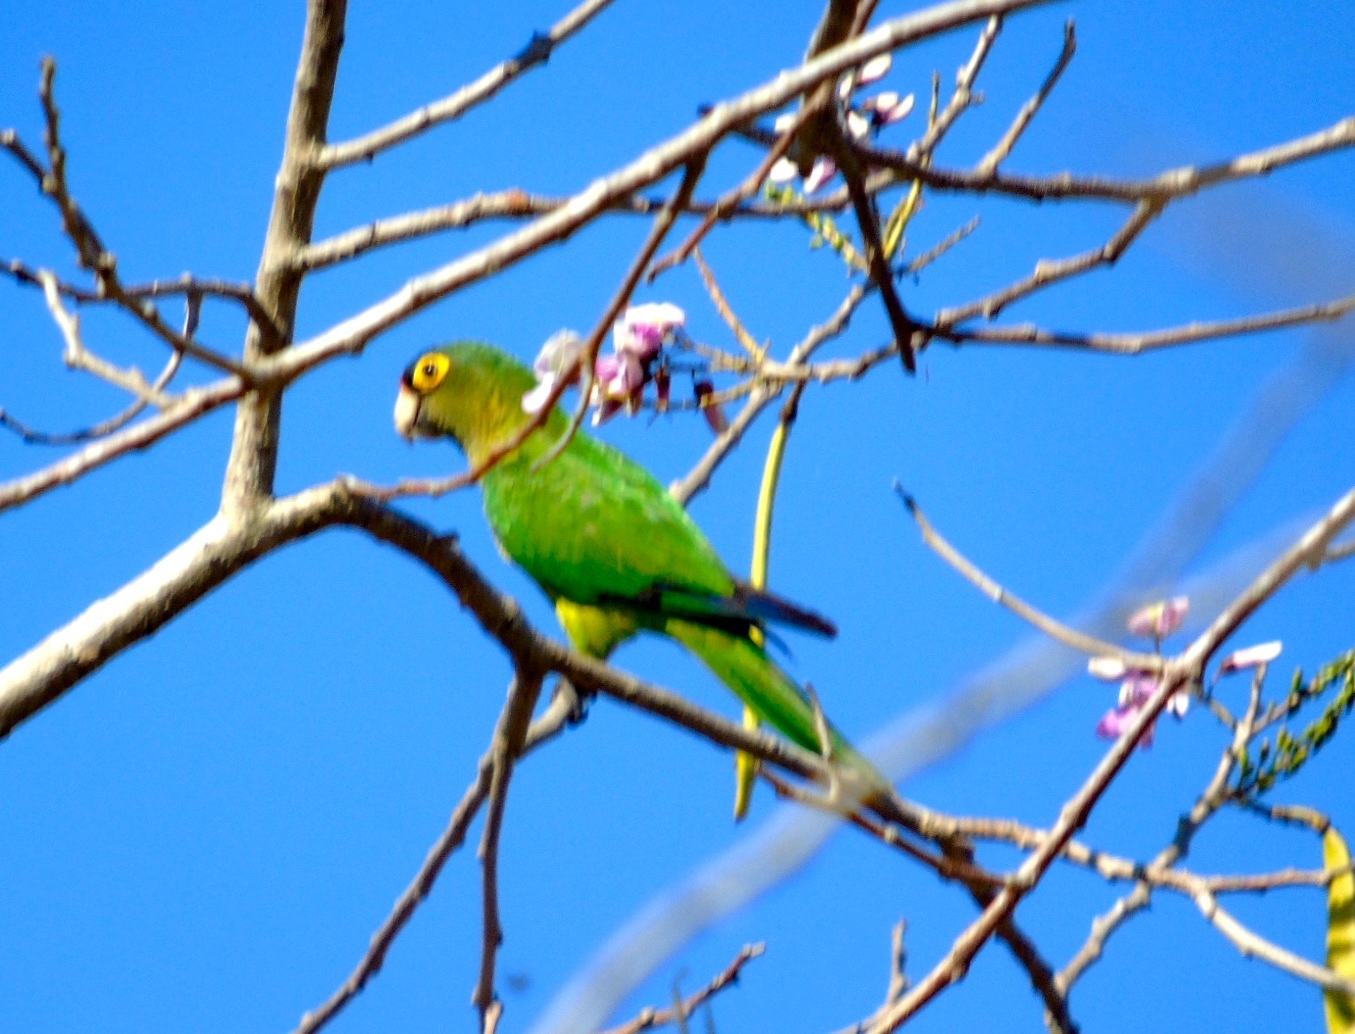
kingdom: Animalia
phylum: Chordata
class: Aves
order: Psittaciformes
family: Psittacidae
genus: Aratinga
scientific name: Aratinga canicularis
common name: Orange-fronted parakeet
